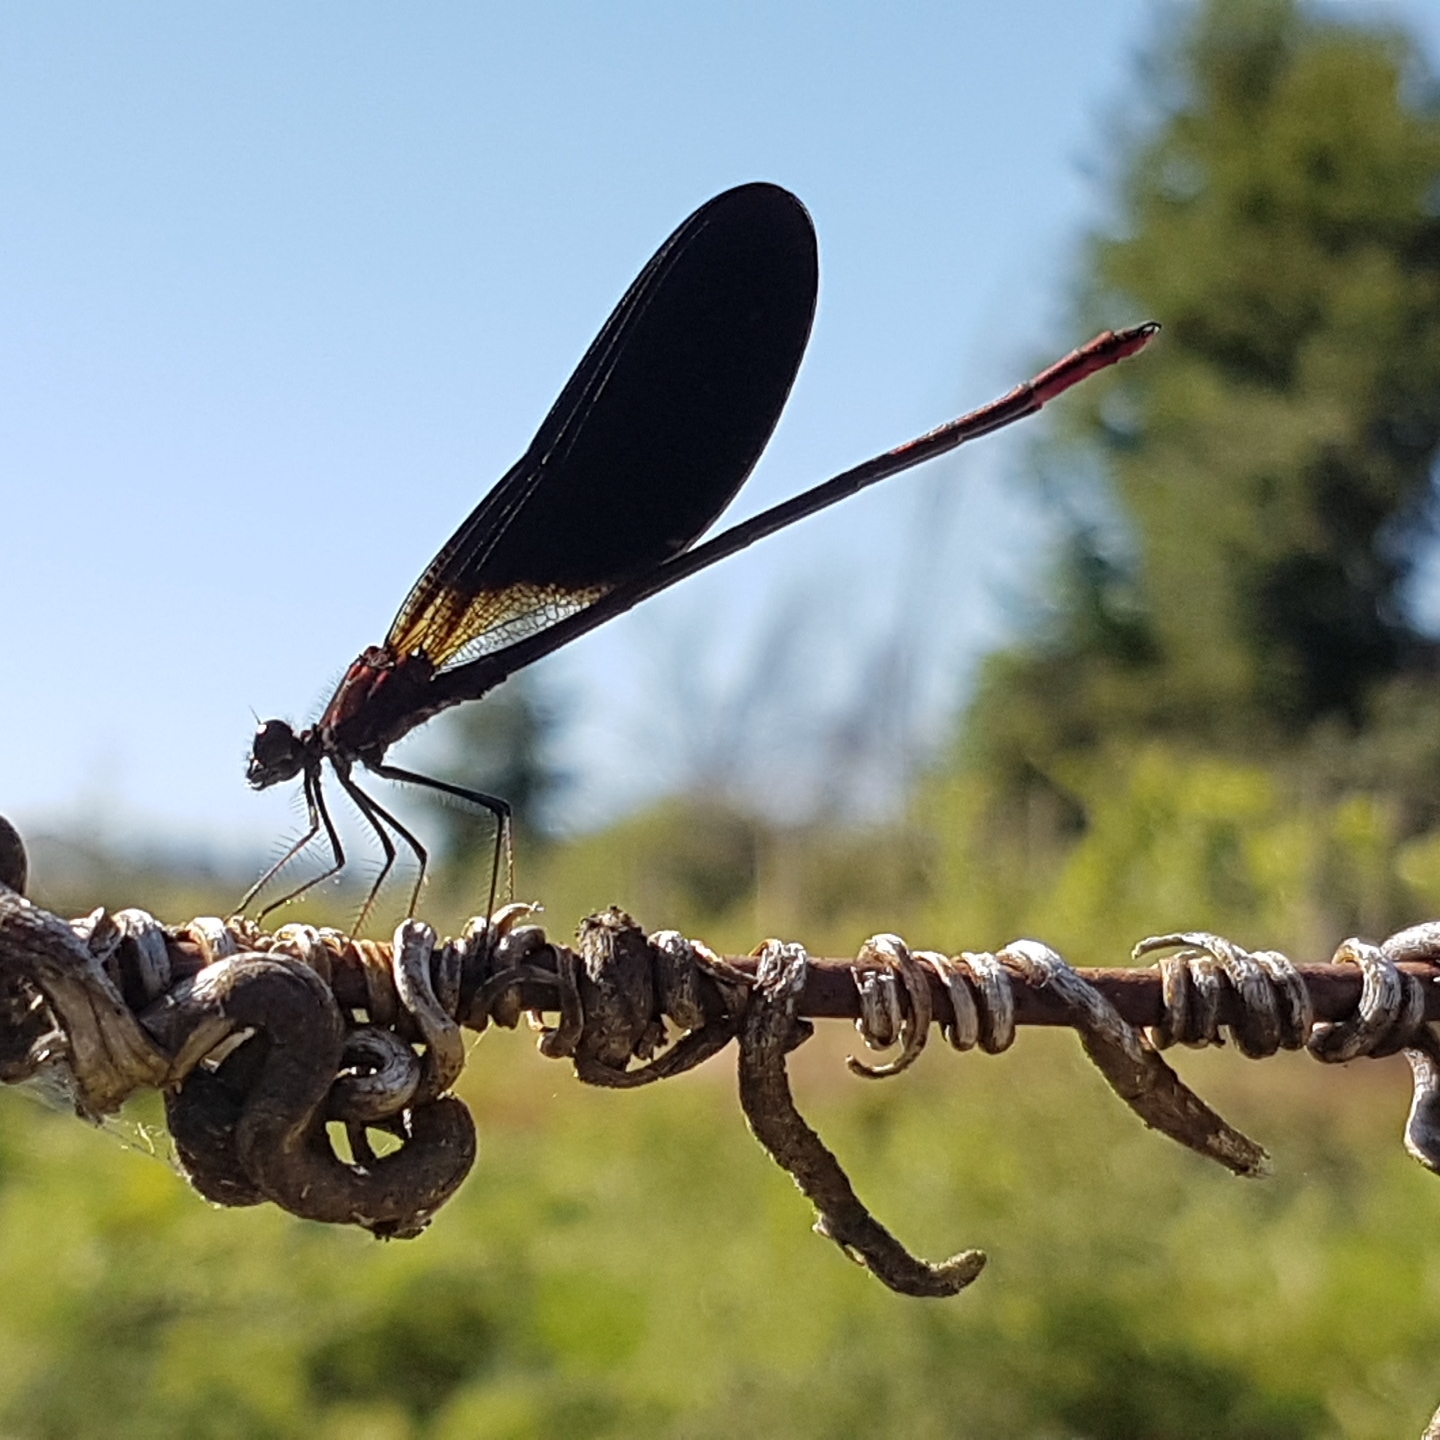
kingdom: Animalia
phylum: Arthropoda
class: Insecta
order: Odonata
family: Calopterygidae
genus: Calopteryx
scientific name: Calopteryx haemorrhoidalis
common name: Copper demoiselle
